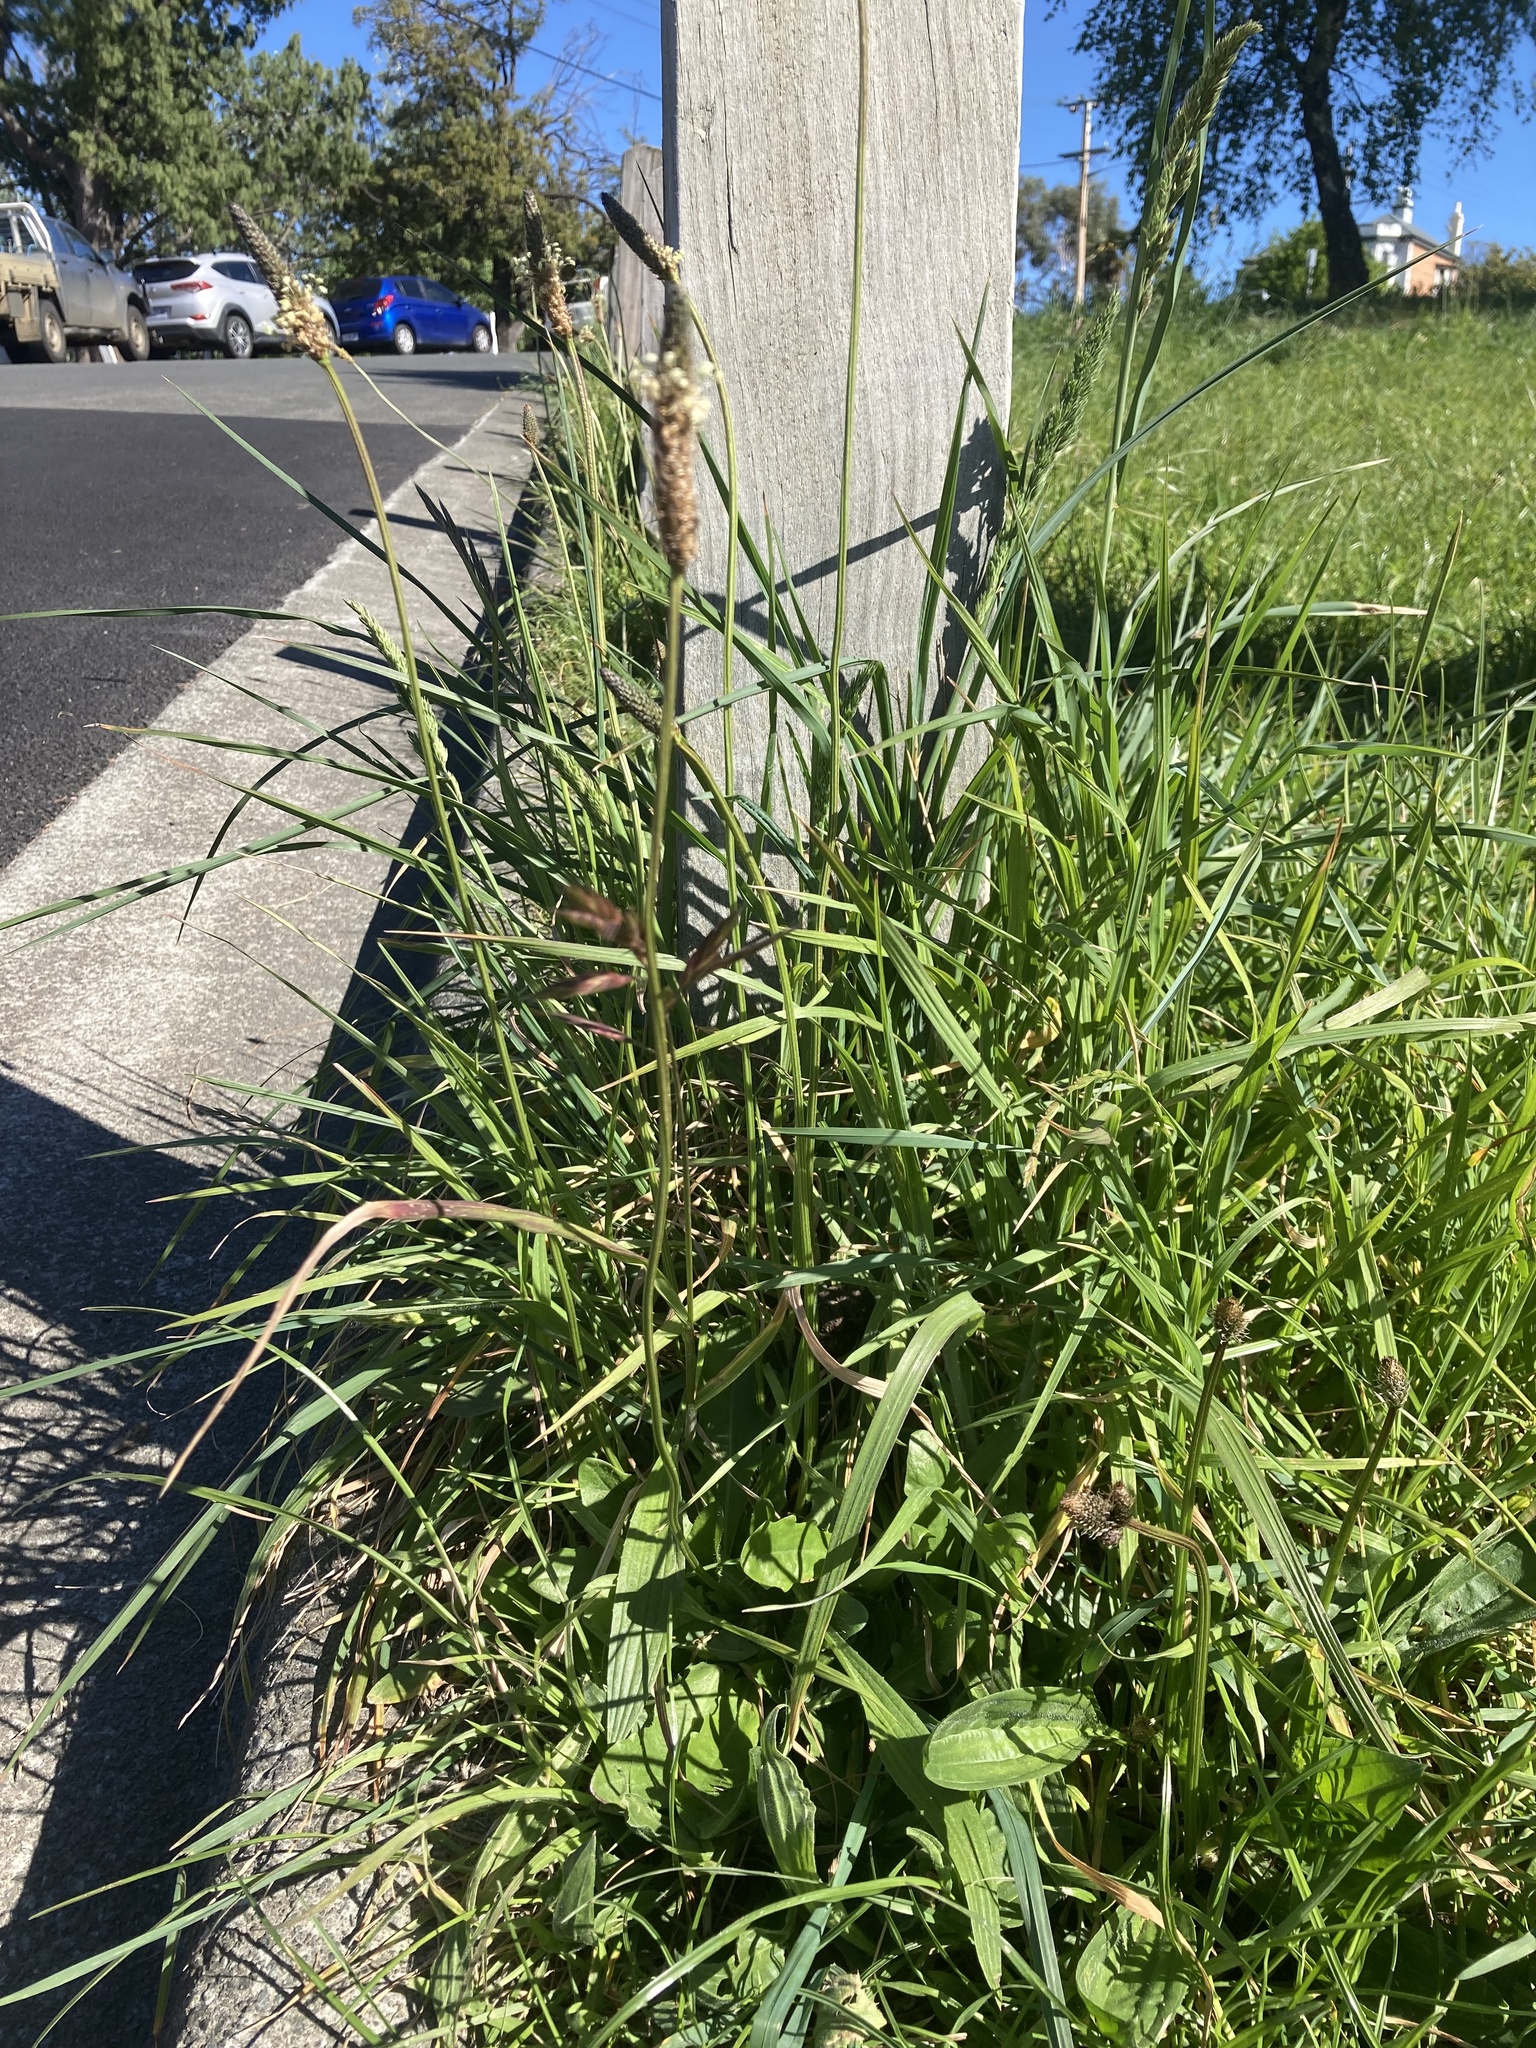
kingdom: Plantae
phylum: Tracheophyta
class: Magnoliopsida
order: Lamiales
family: Plantaginaceae
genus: Plantago
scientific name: Plantago lanceolata
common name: Ribwort plantain
